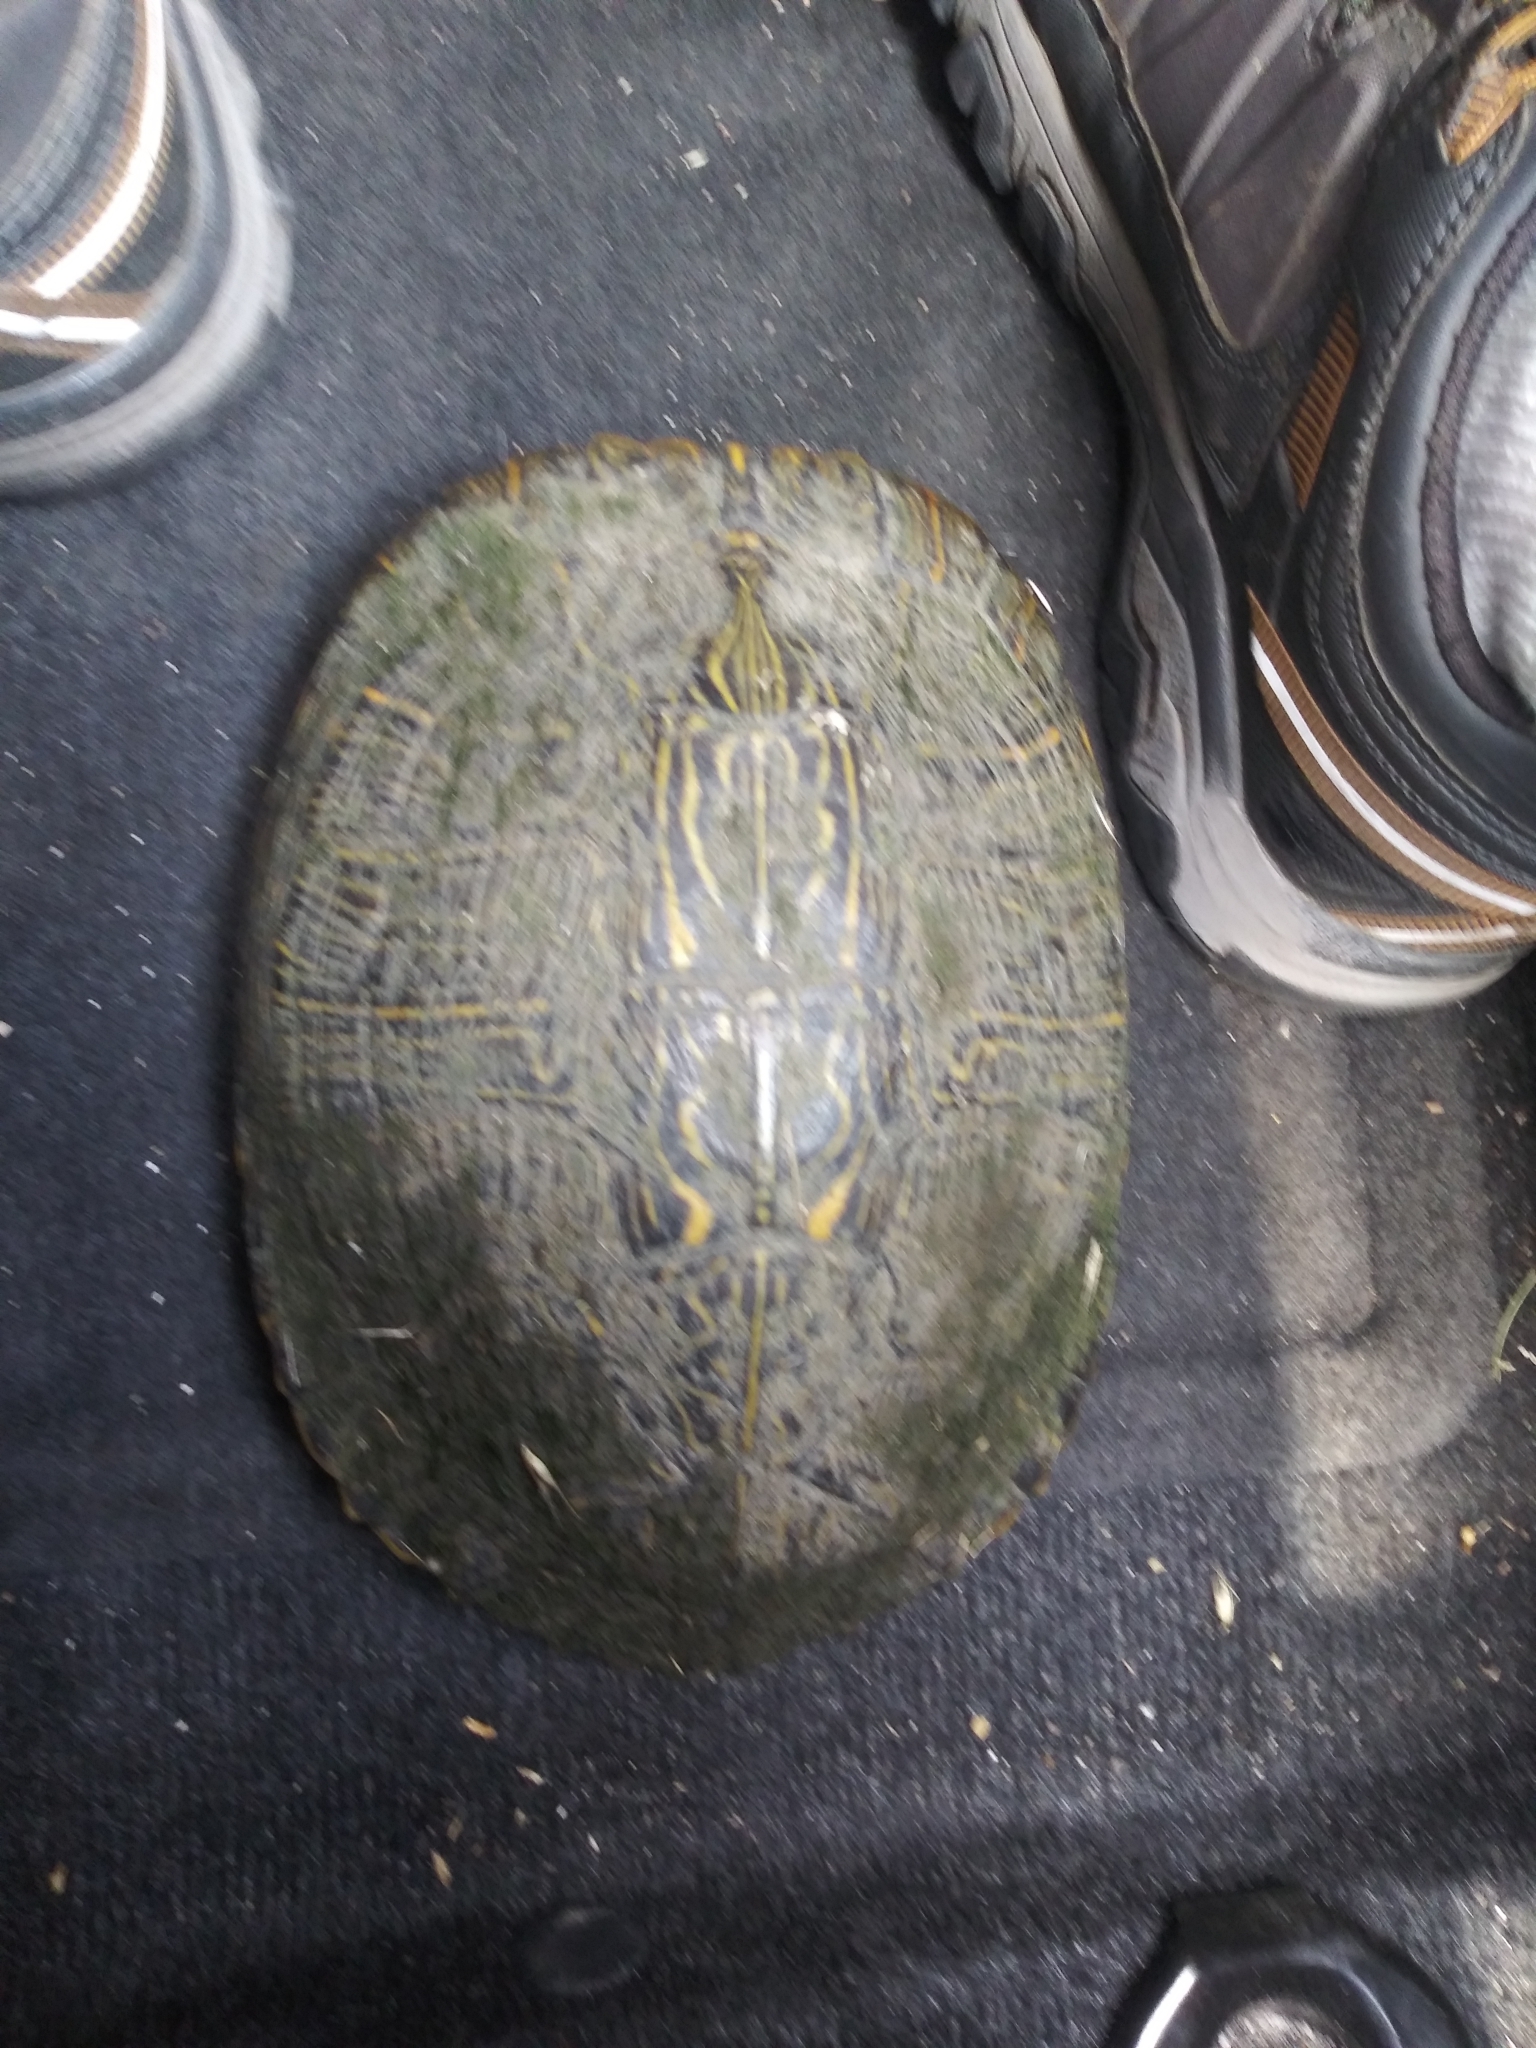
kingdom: Animalia
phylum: Chordata
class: Testudines
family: Emydidae
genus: Trachemys
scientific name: Trachemys scripta
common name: Slider
